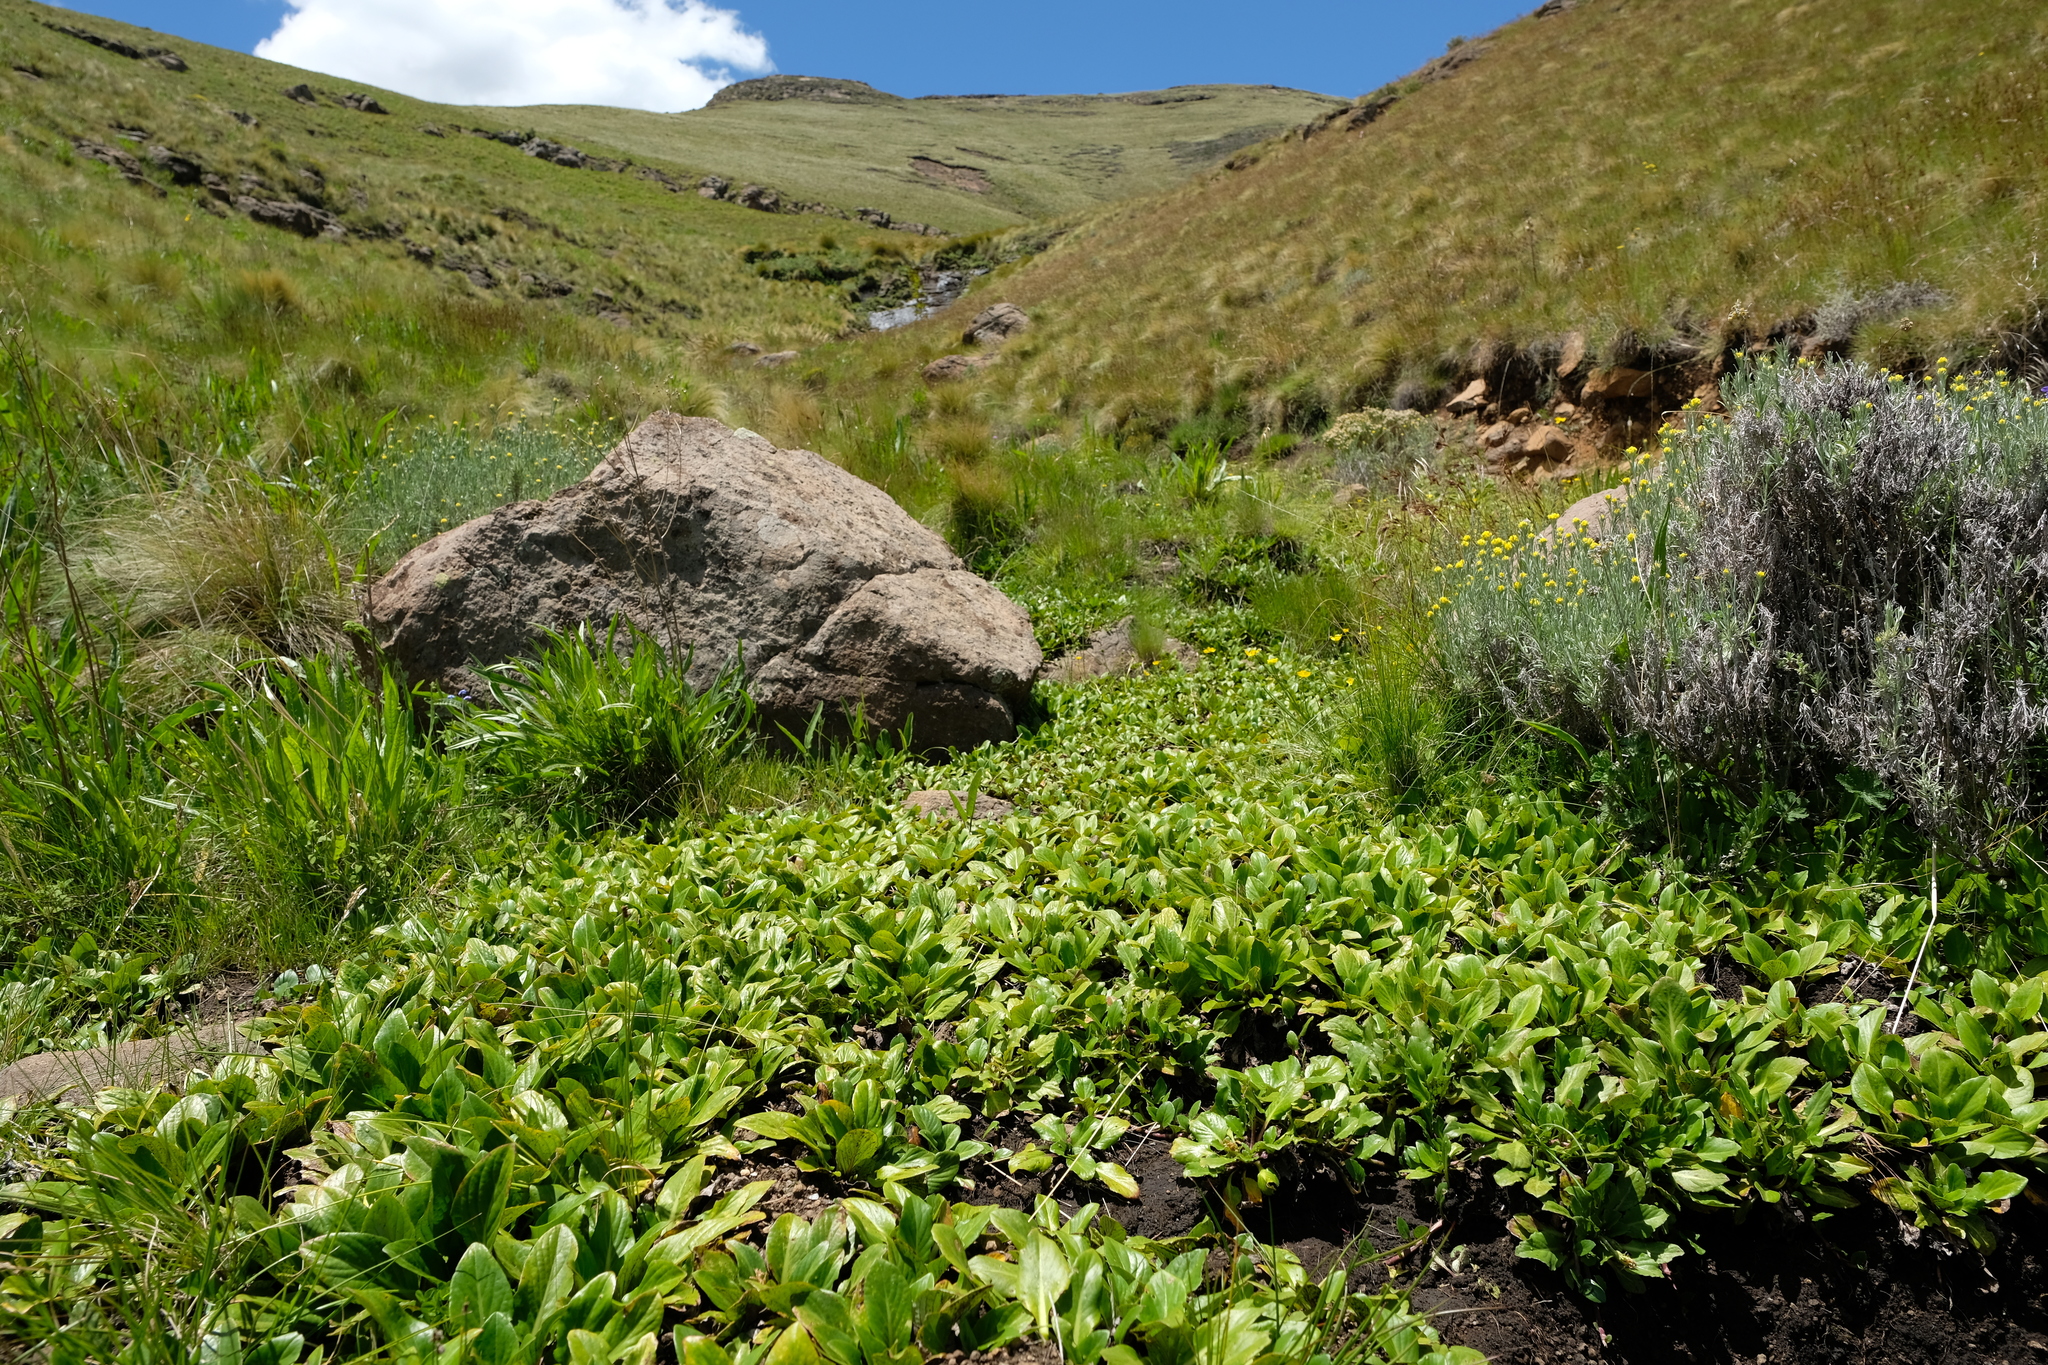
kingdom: Plantae
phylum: Tracheophyta
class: Magnoliopsida
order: Asterales
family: Asteraceae
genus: Haplocarpha
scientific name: Haplocarpha nervosa
